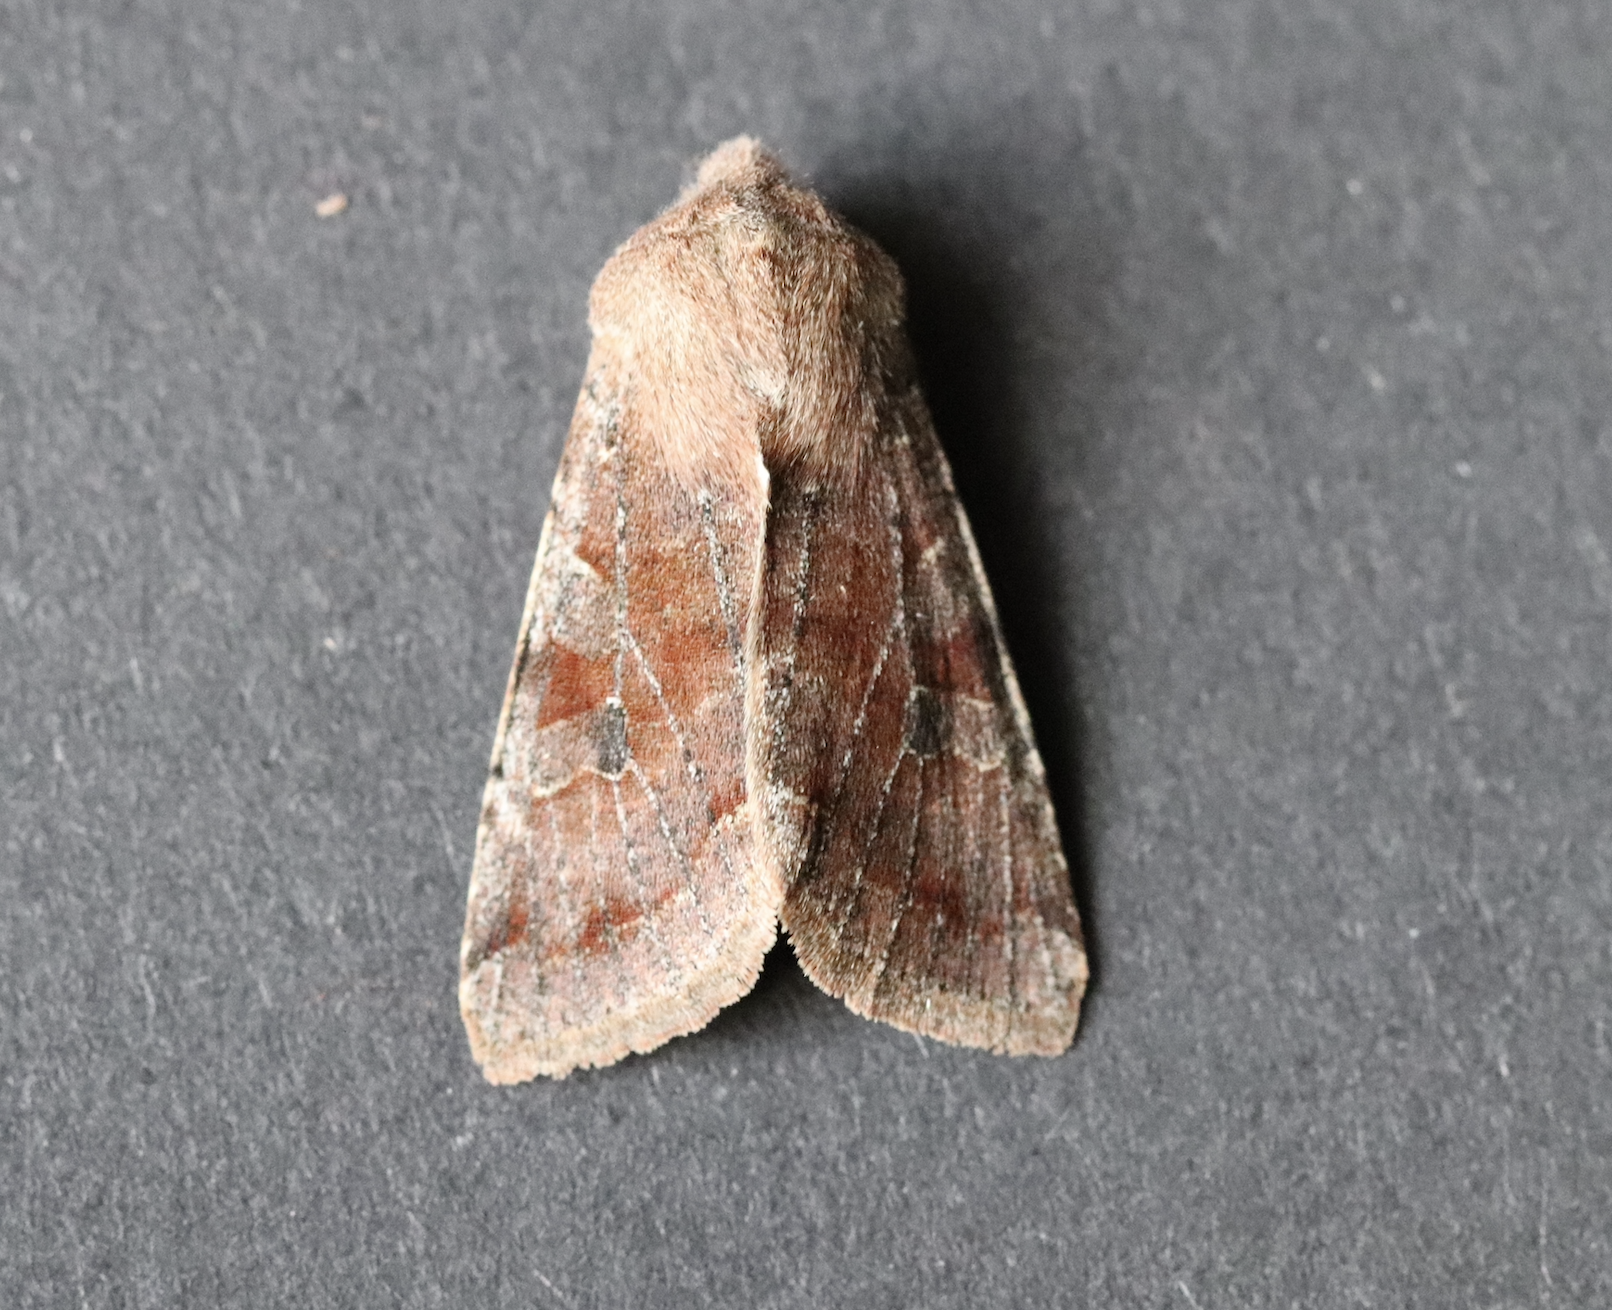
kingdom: Animalia
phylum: Arthropoda
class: Insecta
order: Lepidoptera
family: Noctuidae
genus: Orthosia
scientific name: Orthosia incerta
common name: Clouded drab
